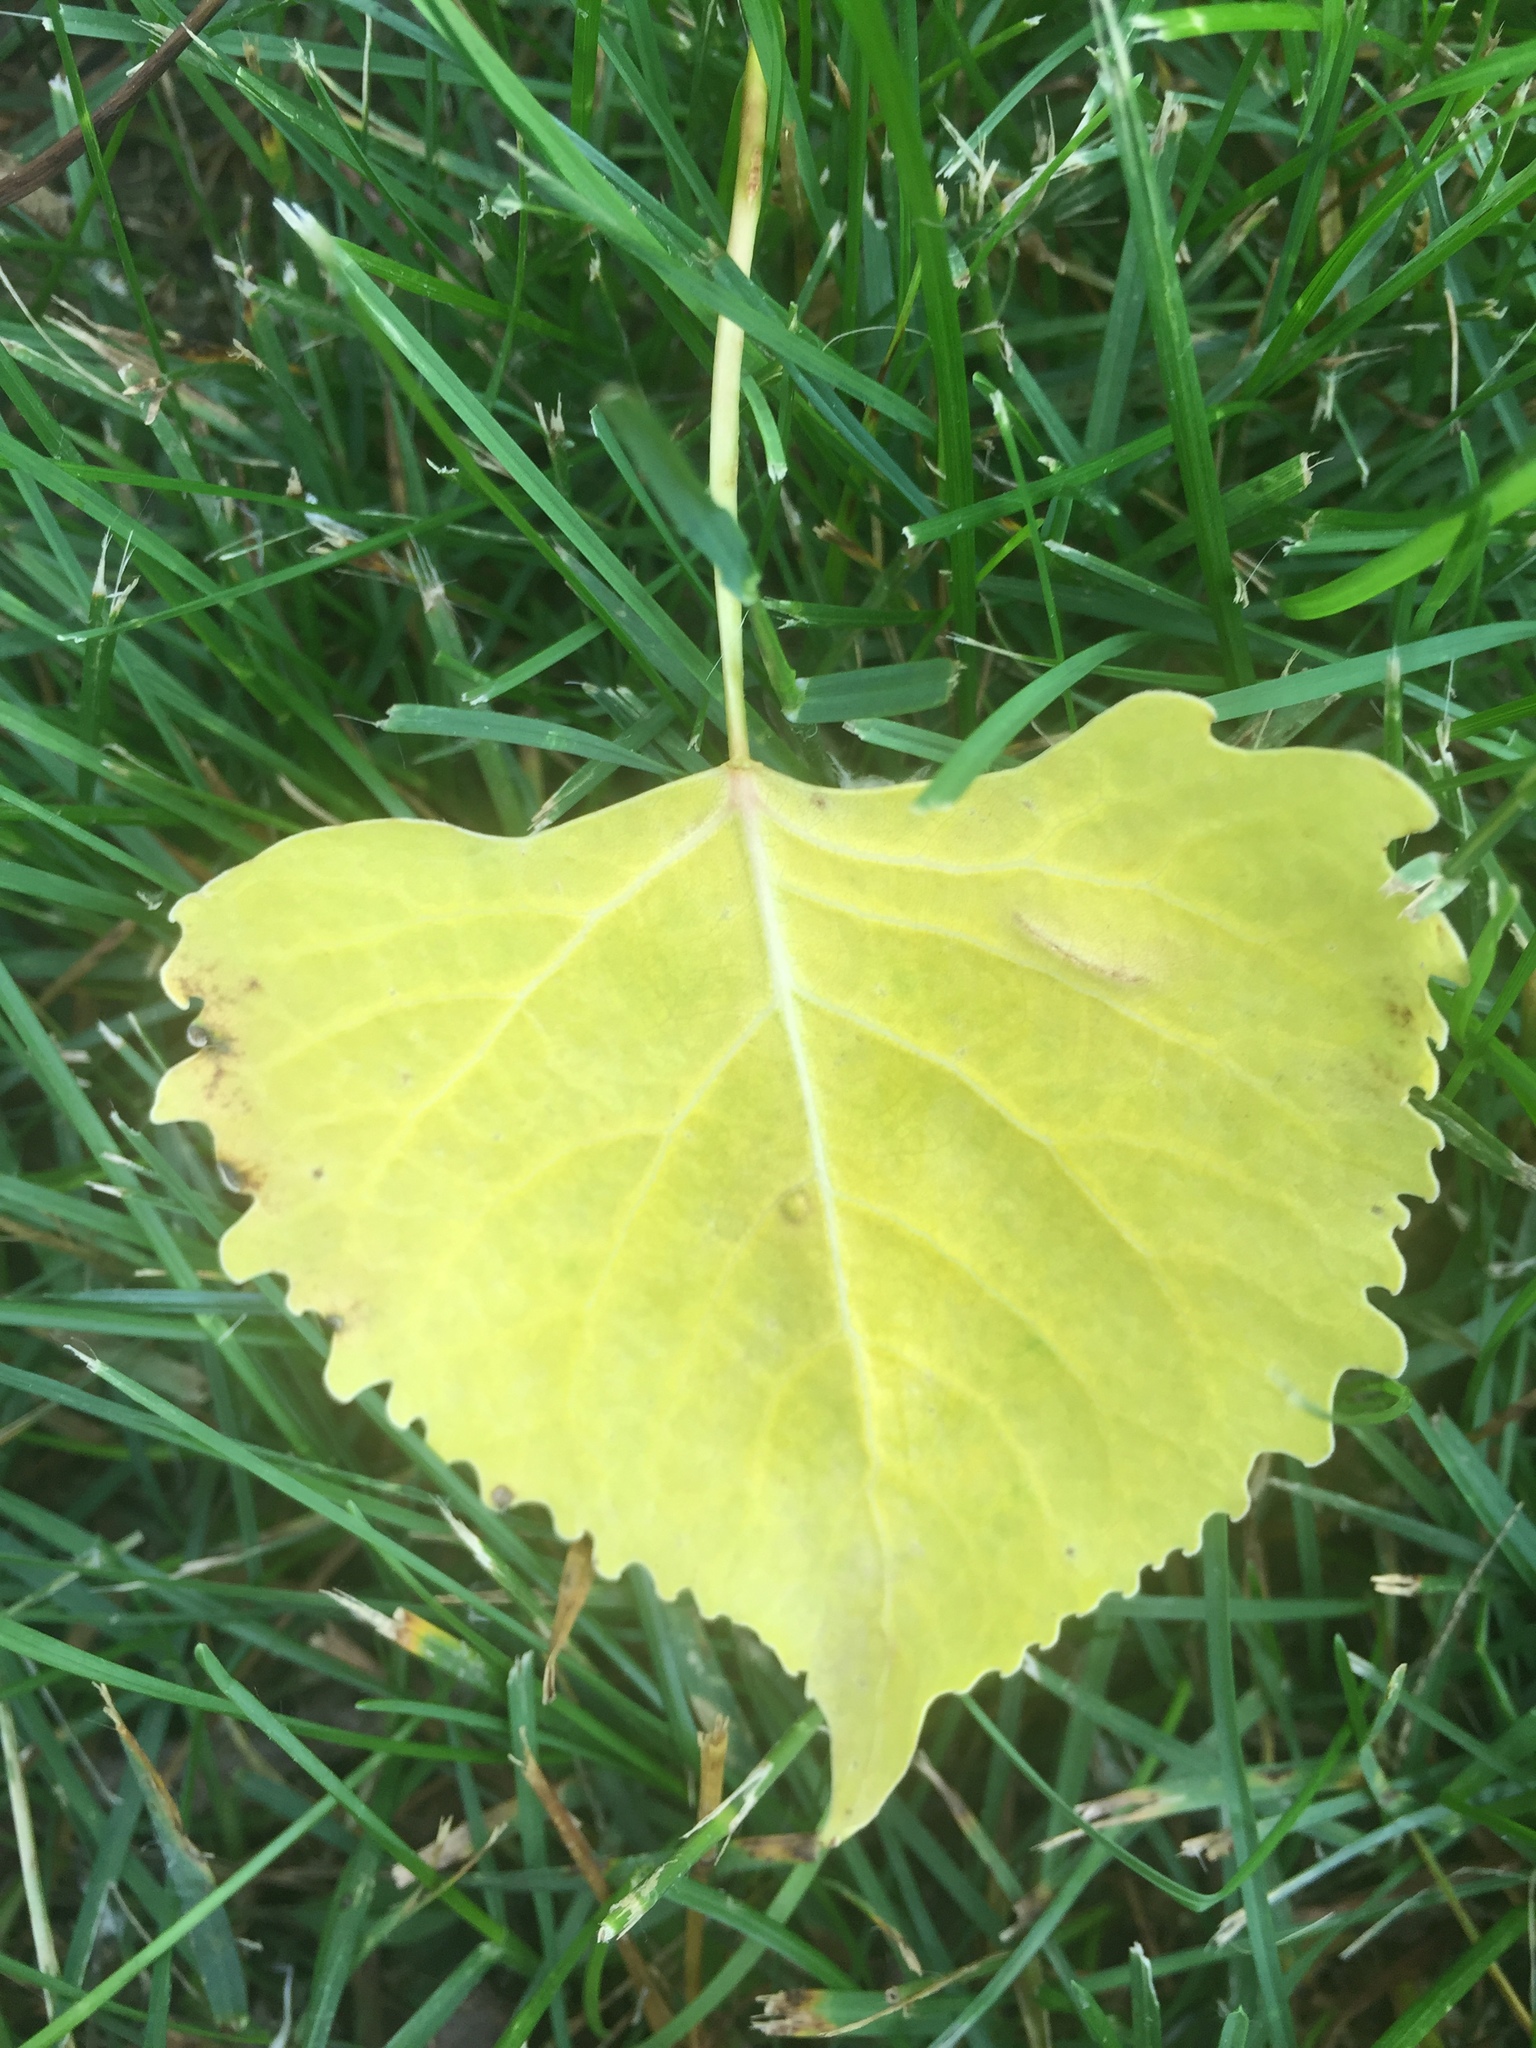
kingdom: Plantae
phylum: Tracheophyta
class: Magnoliopsida
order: Malpighiales
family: Salicaceae
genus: Populus
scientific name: Populus deltoides
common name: Eastern cottonwood
